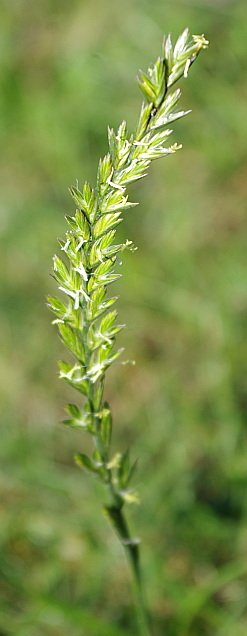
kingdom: Plantae
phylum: Tracheophyta
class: Liliopsida
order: Poales
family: Poaceae
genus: Lolium
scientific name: Lolium perenne
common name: Perennial ryegrass
